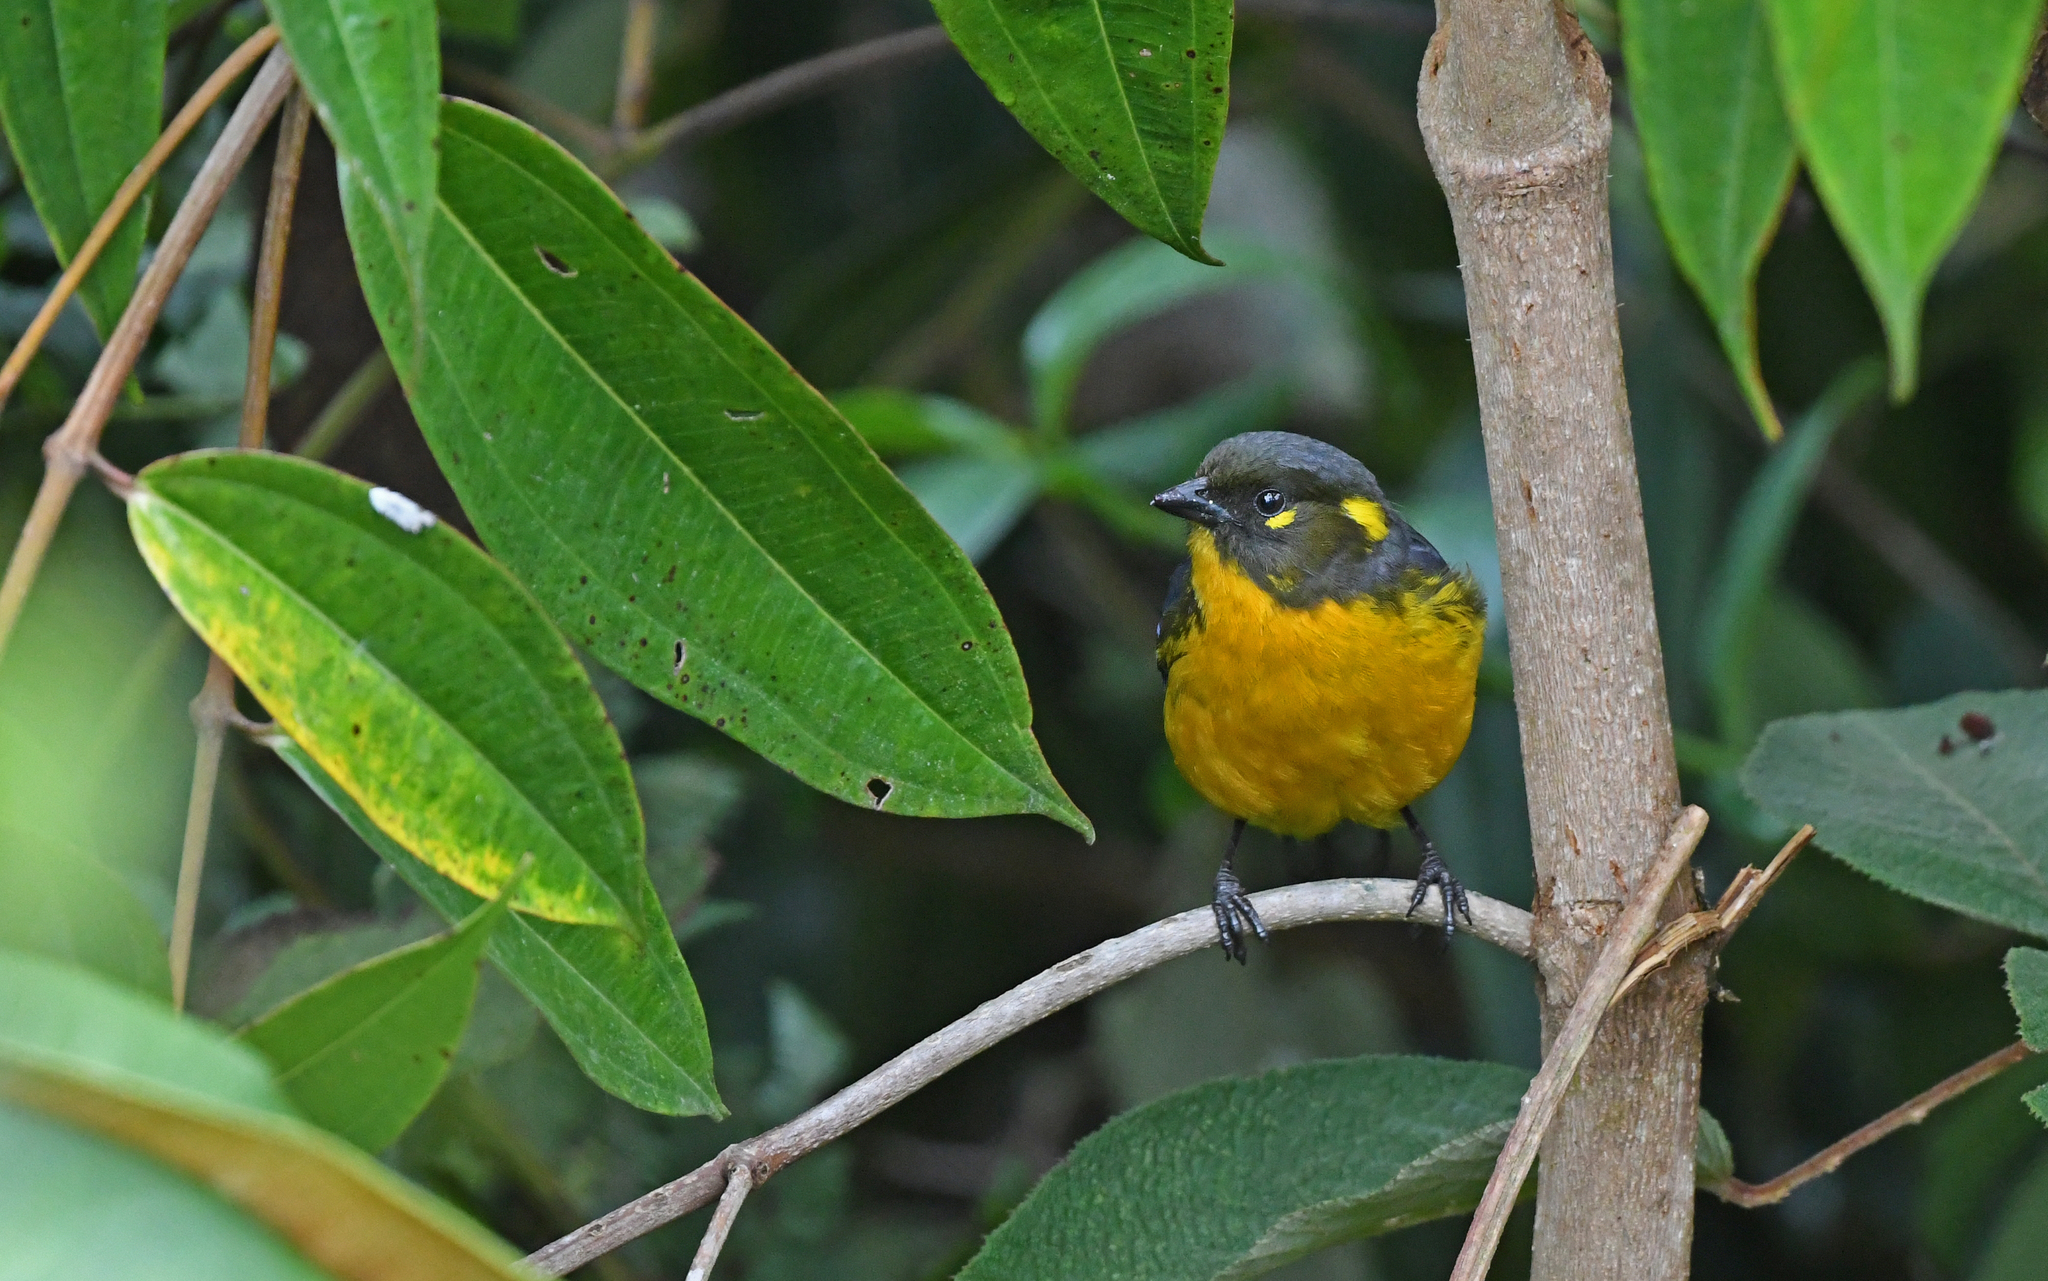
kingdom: Animalia
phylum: Chordata
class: Aves
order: Passeriformes
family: Thraupidae
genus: Anisognathus
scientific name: Anisognathus lacrymosus
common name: Lacrimose mountain-tanager
